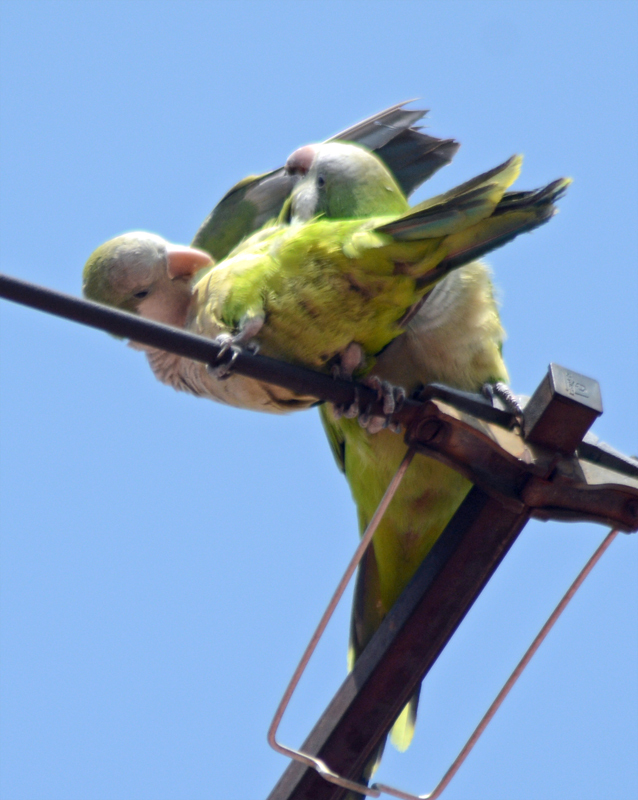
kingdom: Animalia
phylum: Chordata
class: Aves
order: Psittaciformes
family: Psittacidae
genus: Myiopsitta
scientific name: Myiopsitta monachus
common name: Monk parakeet
